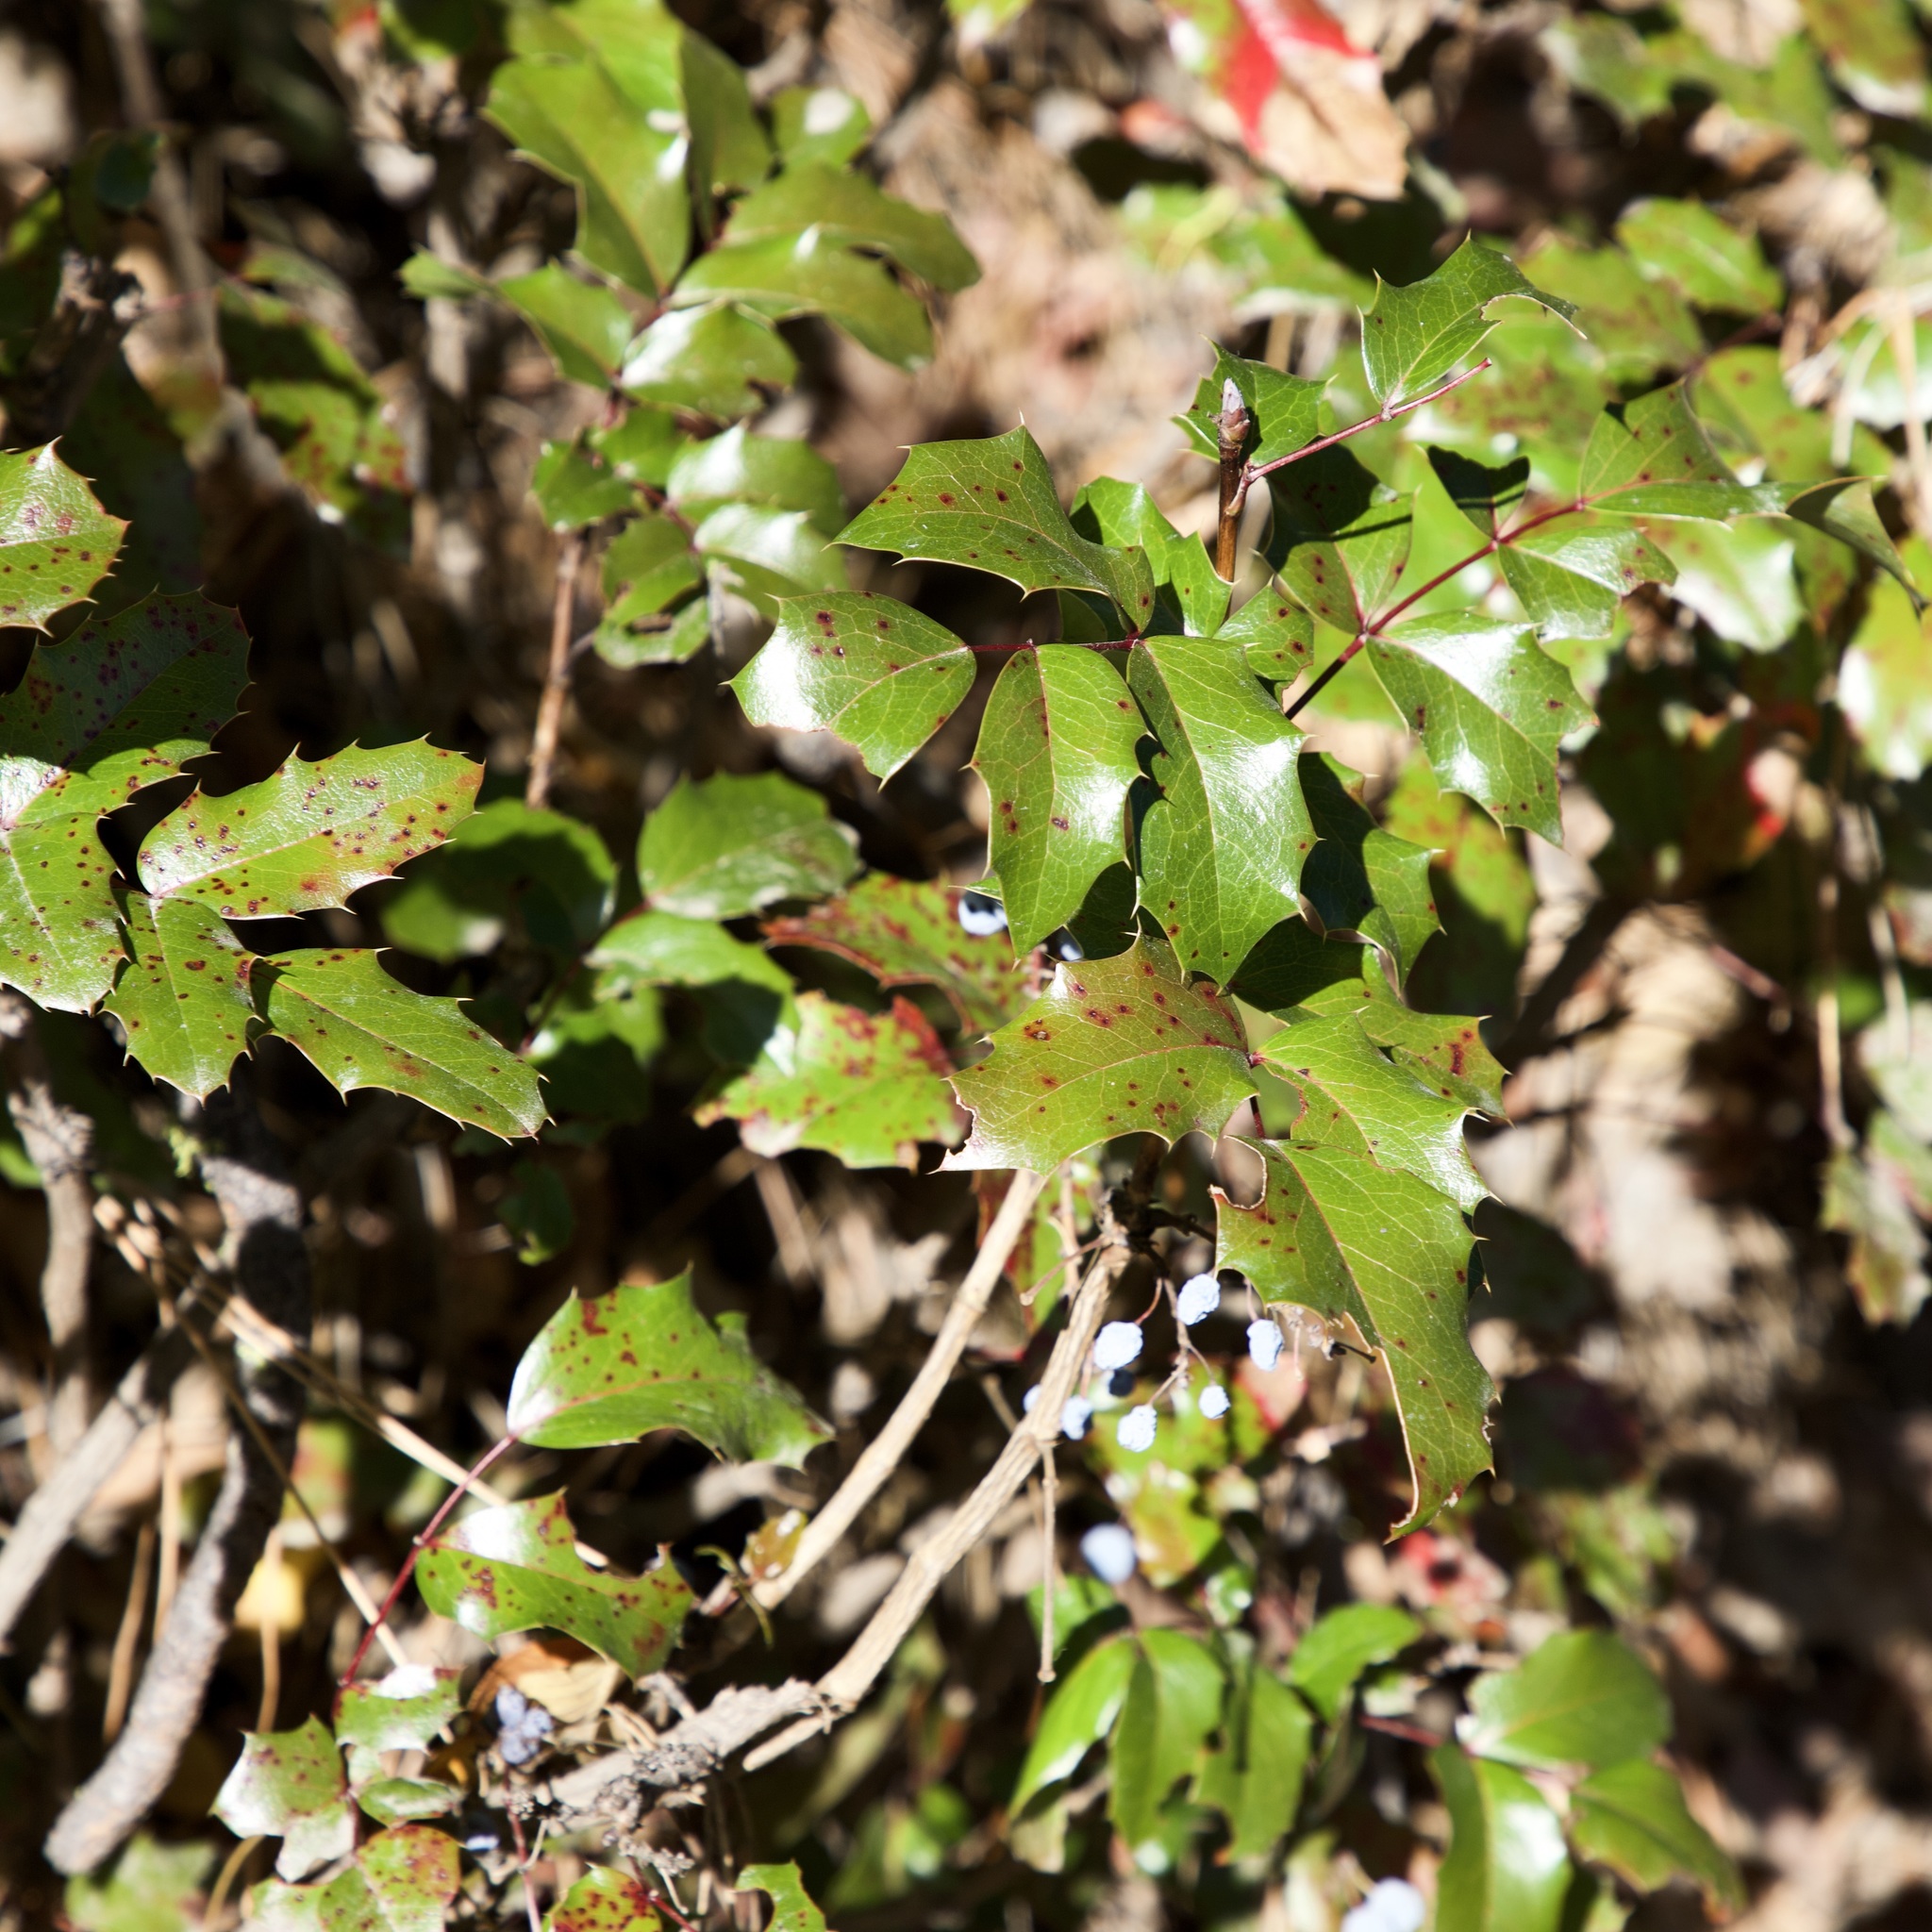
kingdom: Plantae
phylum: Tracheophyta
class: Magnoliopsida
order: Ranunculales
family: Berberidaceae
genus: Mahonia
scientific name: Mahonia aquifolium
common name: Oregon-grape
